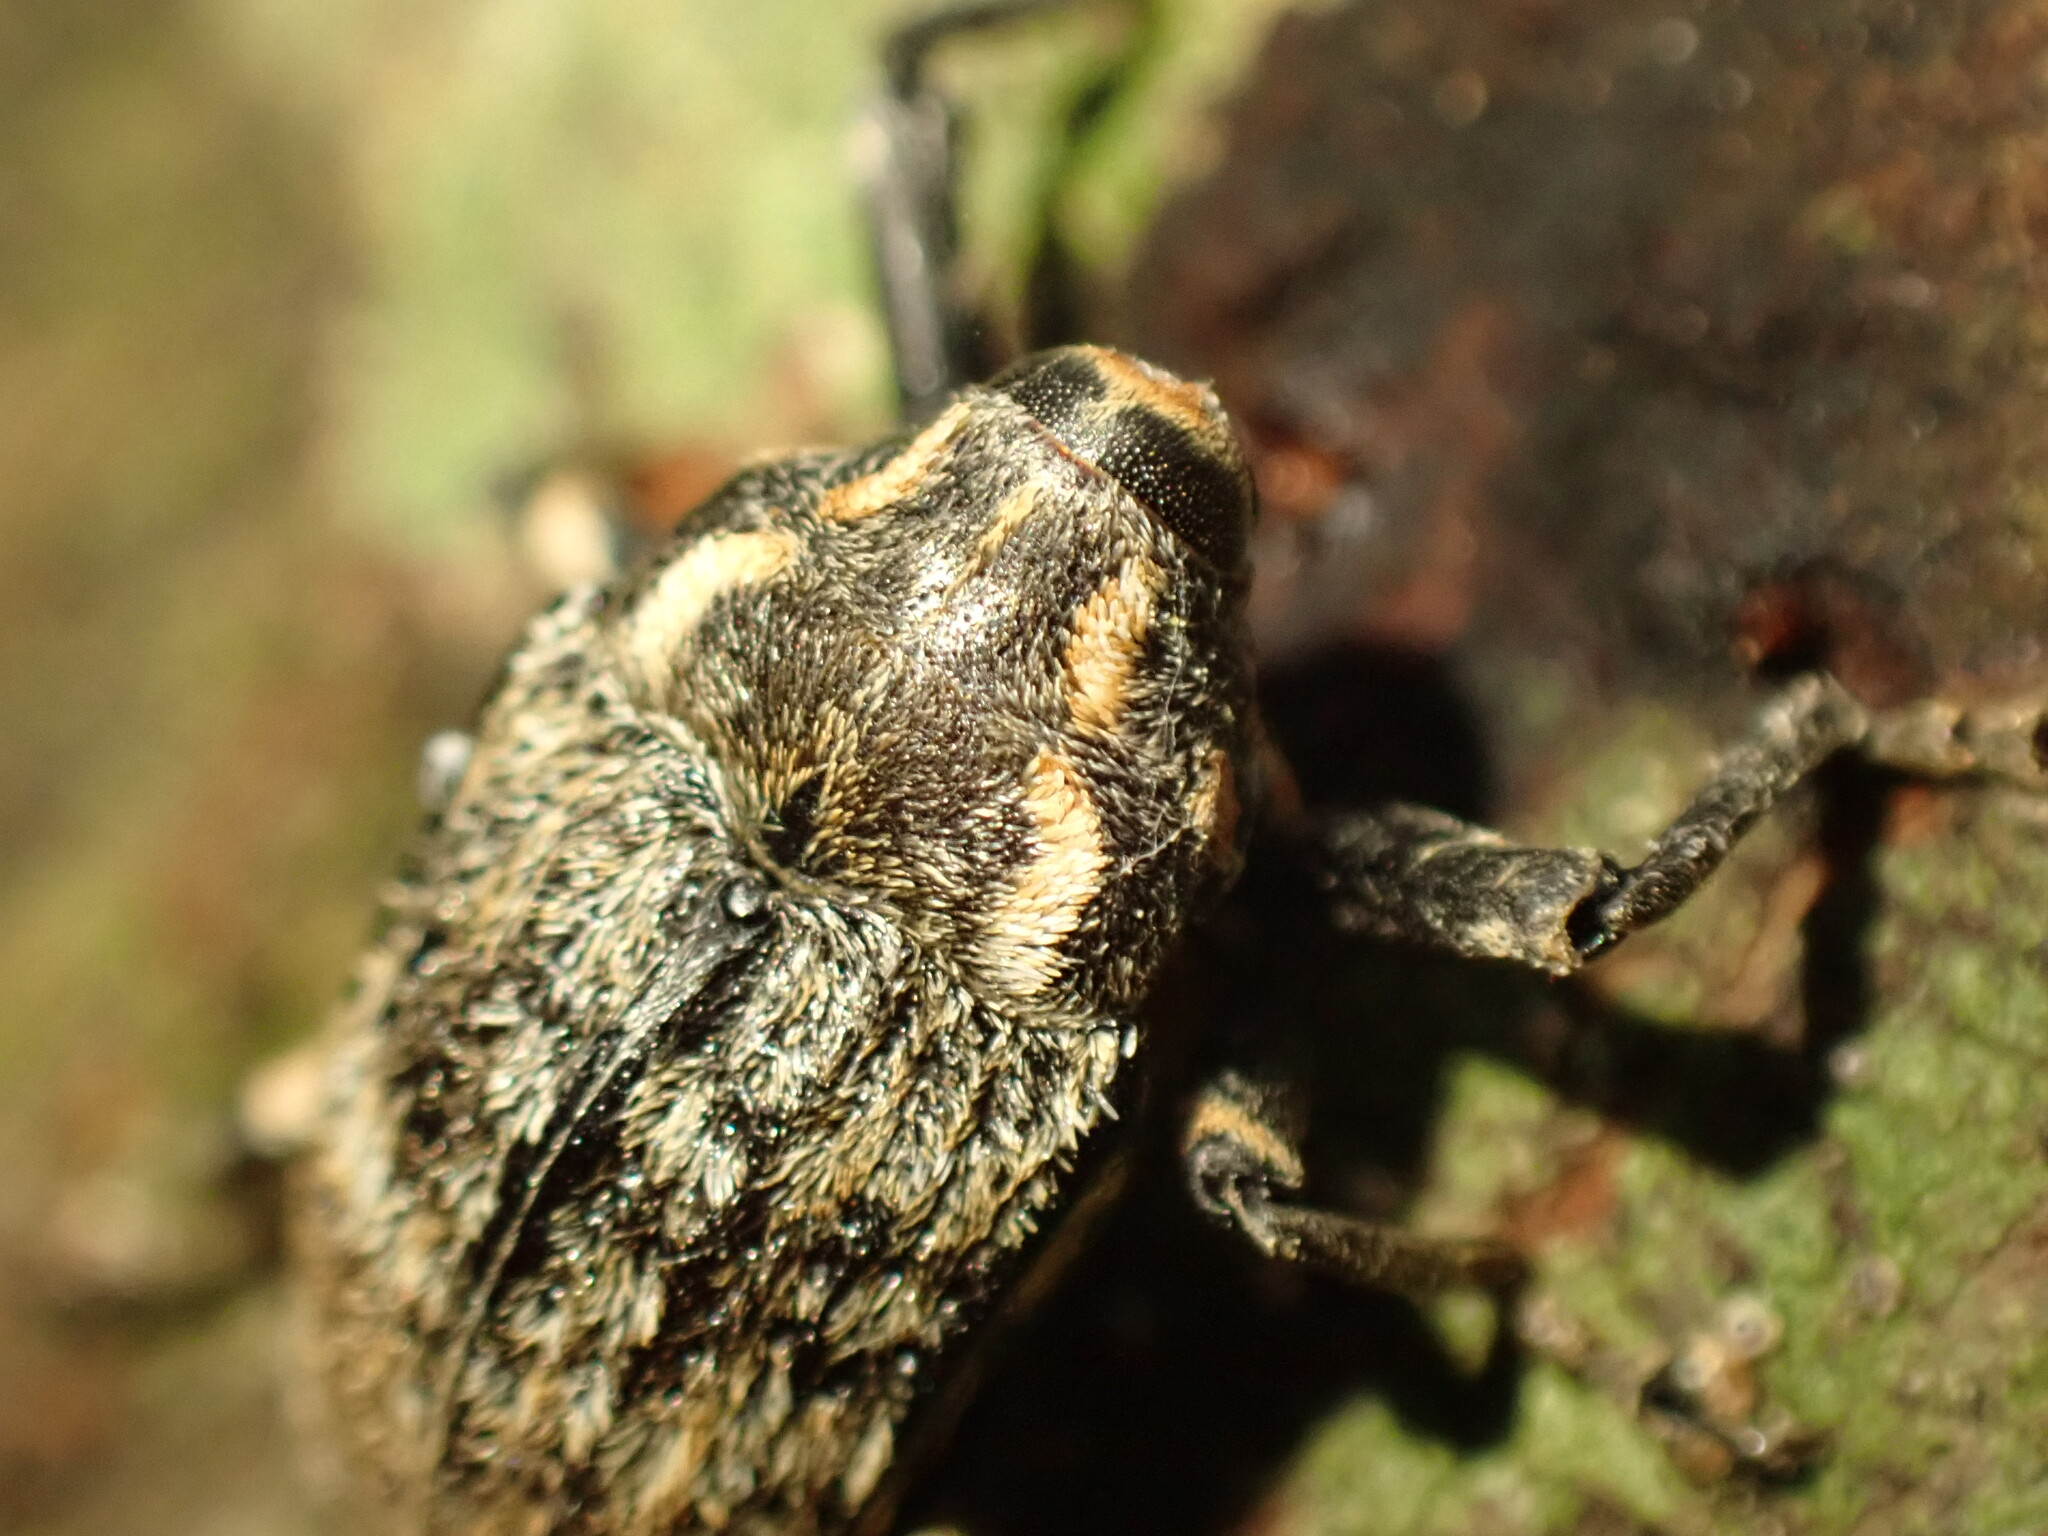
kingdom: Animalia
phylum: Arthropoda
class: Insecta
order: Coleoptera
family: Curculionidae
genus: Rhynchodes
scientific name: Rhynchodes ursus
